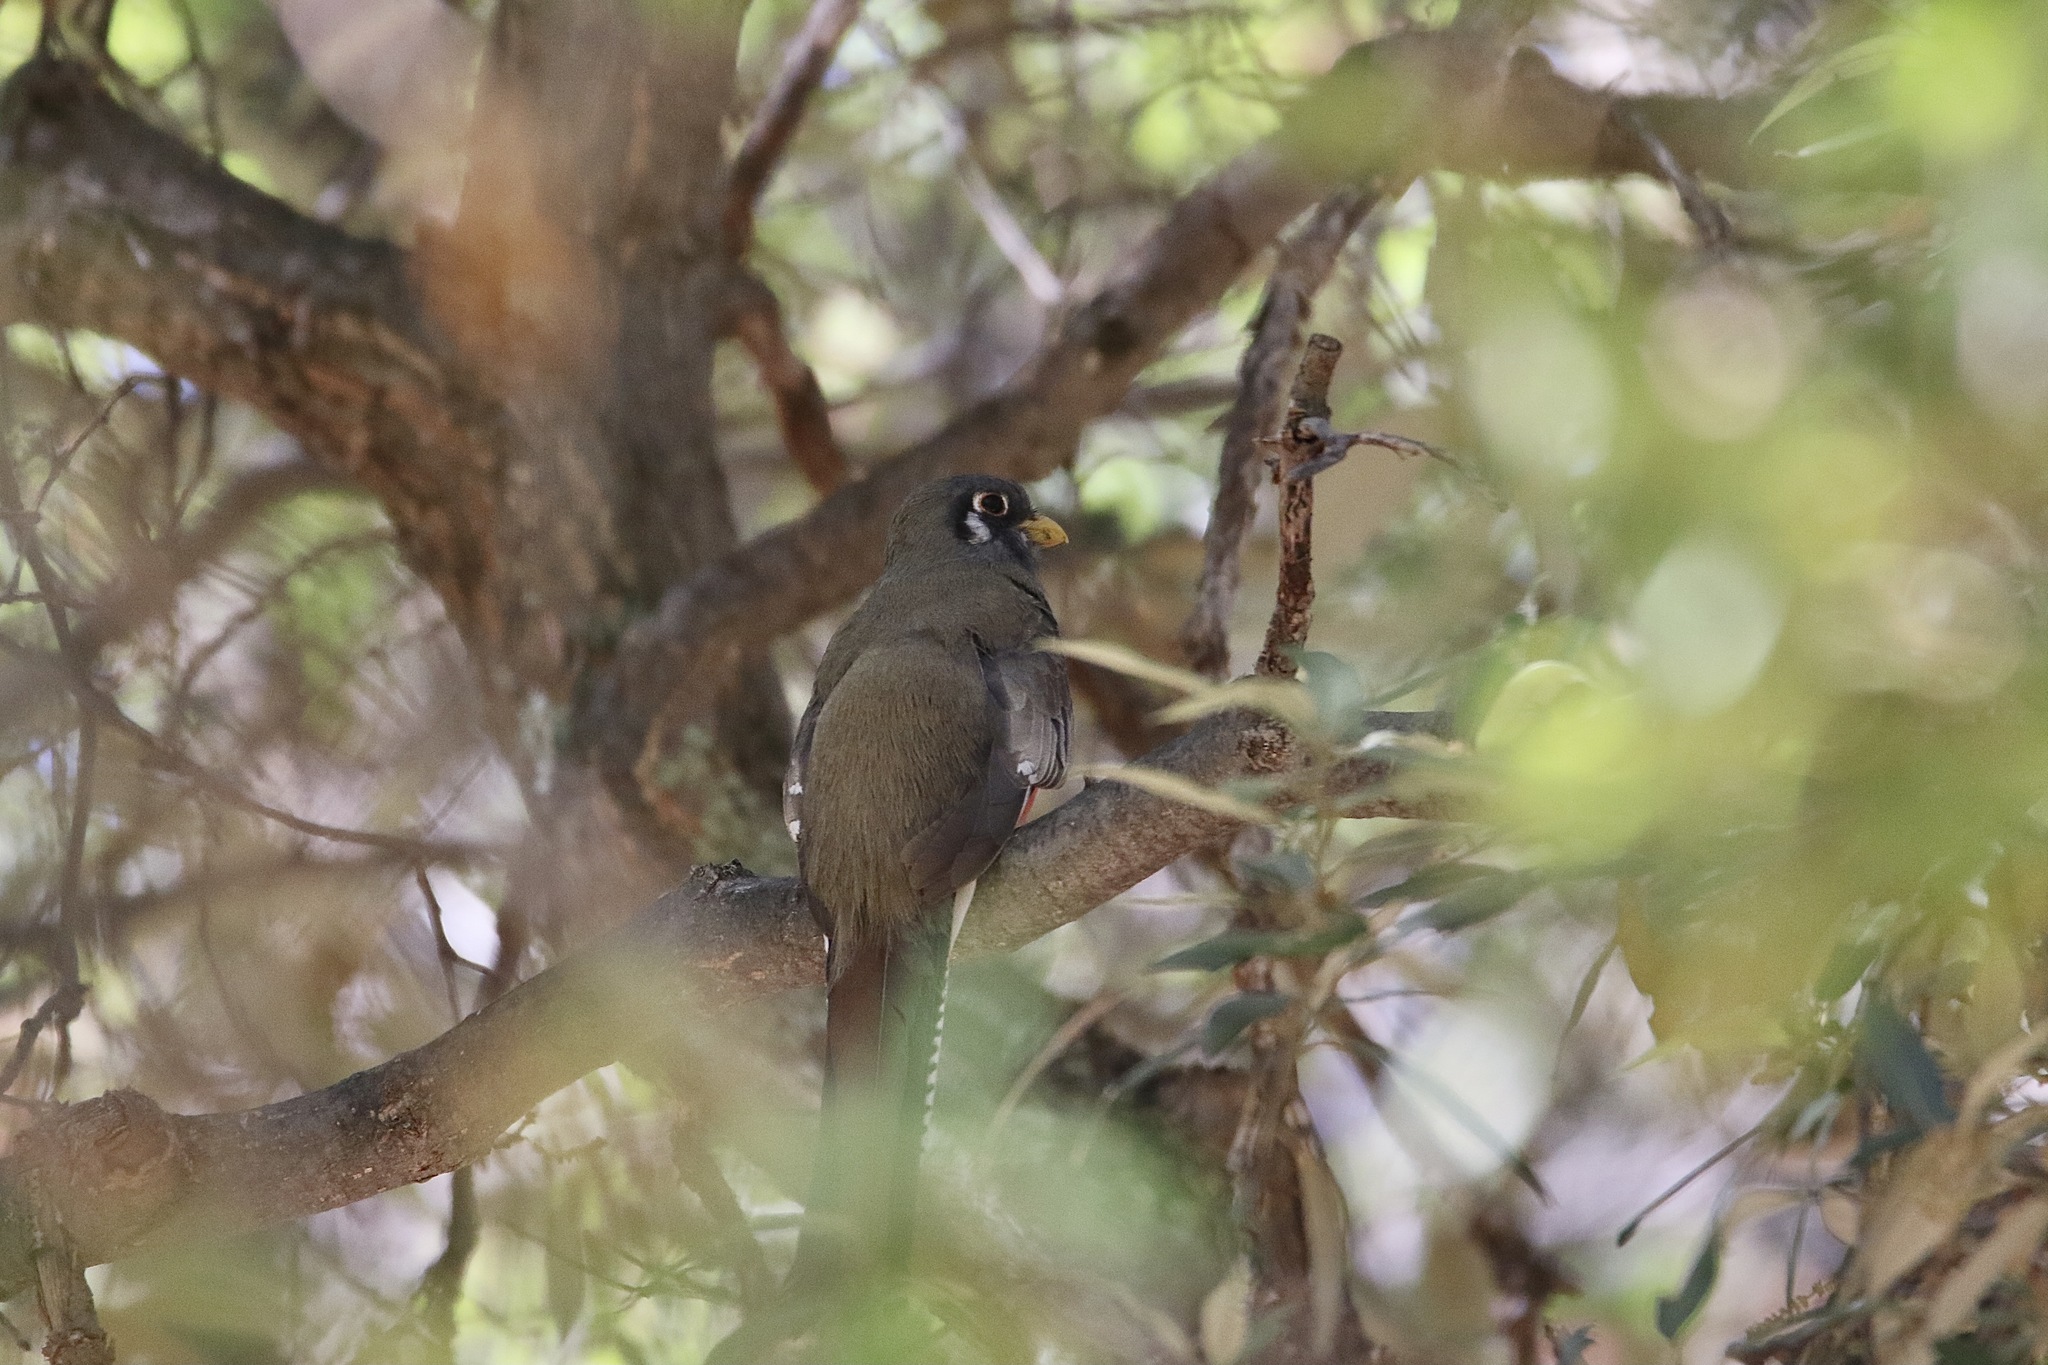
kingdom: Animalia
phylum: Chordata
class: Aves
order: Trogoniformes
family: Trogonidae
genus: Trogon
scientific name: Trogon elegans
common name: Elegant trogon
